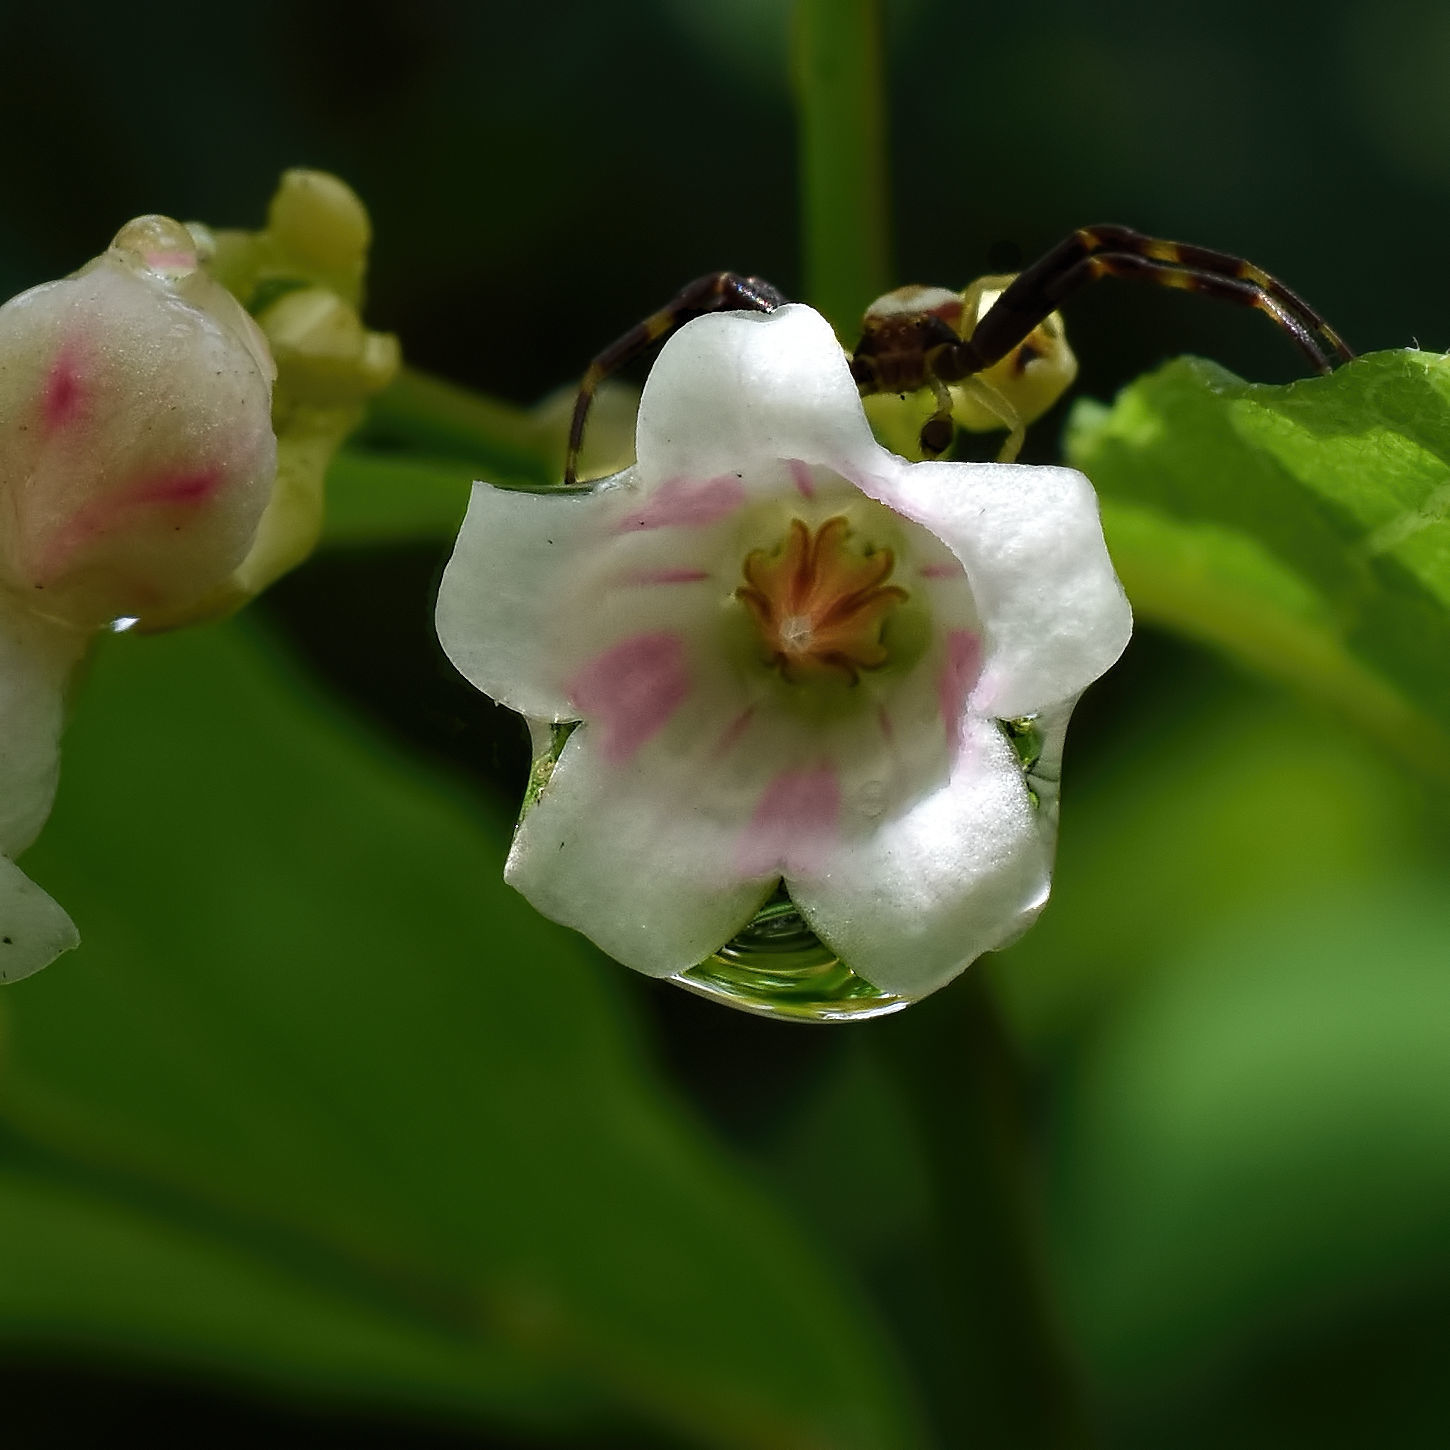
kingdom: Plantae
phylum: Tracheophyta
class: Magnoliopsida
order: Gentianales
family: Apocynaceae
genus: Apocynum
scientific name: Apocynum androsaemifolium
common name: Spreading dogbane
